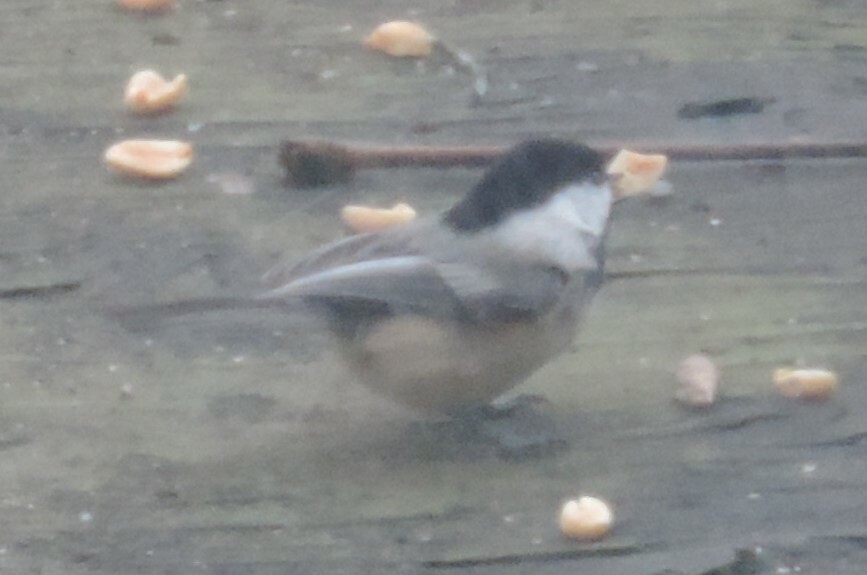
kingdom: Animalia
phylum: Chordata
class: Aves
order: Passeriformes
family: Paridae
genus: Poecile
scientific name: Poecile atricapillus
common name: Black-capped chickadee
